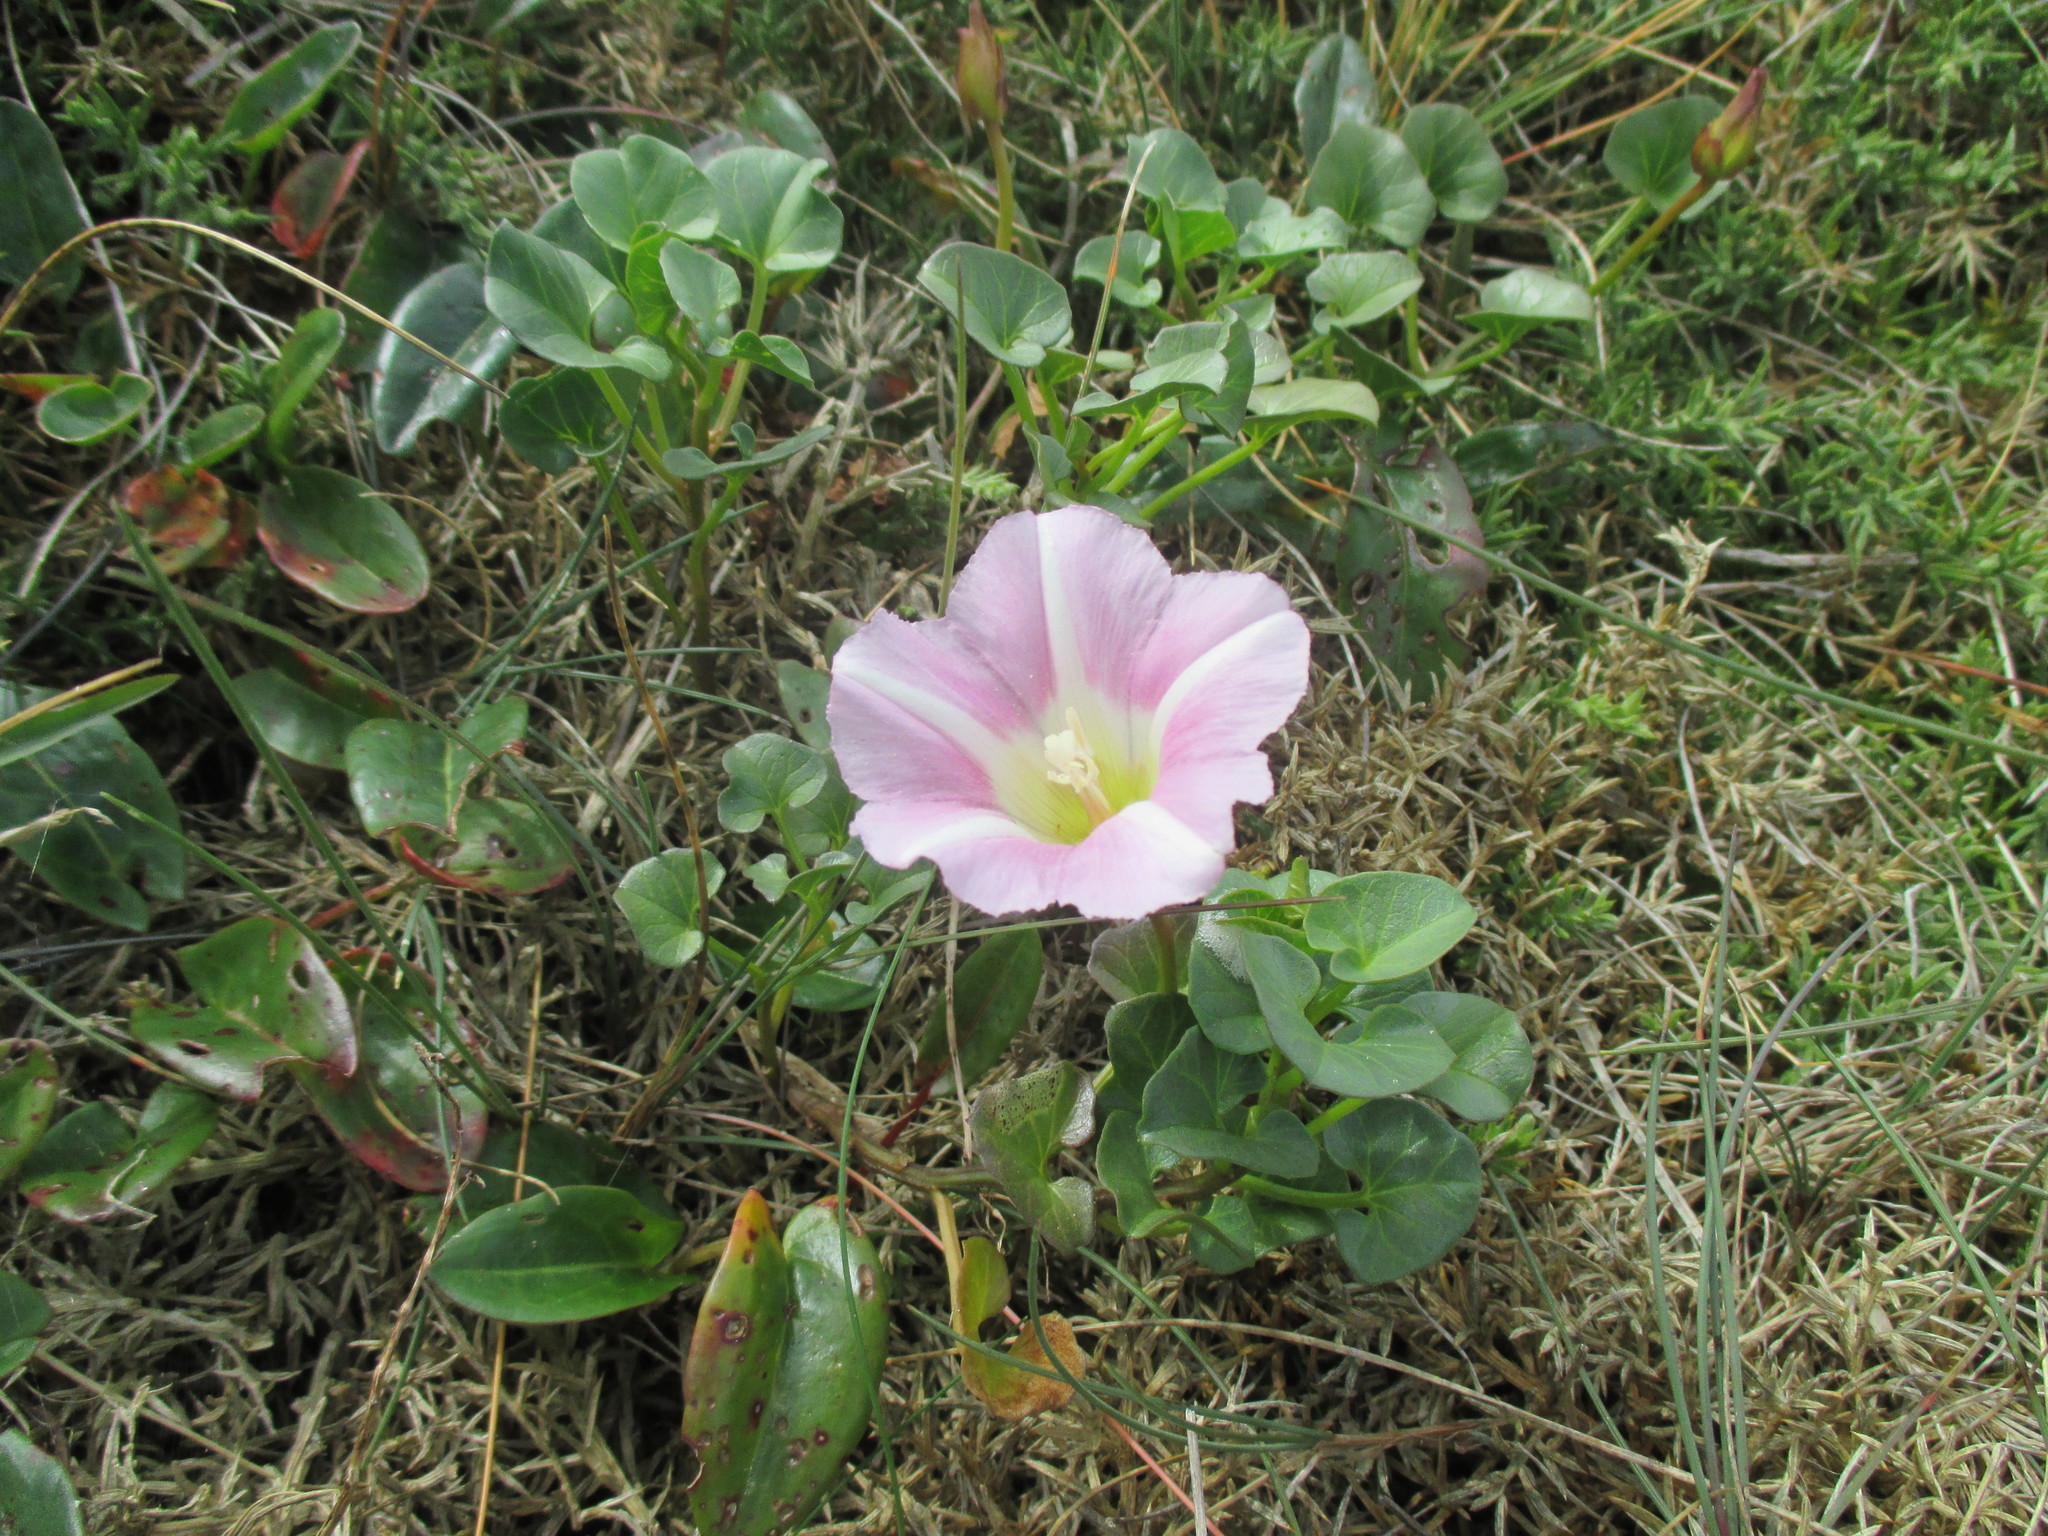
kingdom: Plantae
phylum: Tracheophyta
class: Magnoliopsida
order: Solanales
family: Convolvulaceae
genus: Calystegia
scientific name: Calystegia soldanella
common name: Sea bindweed
